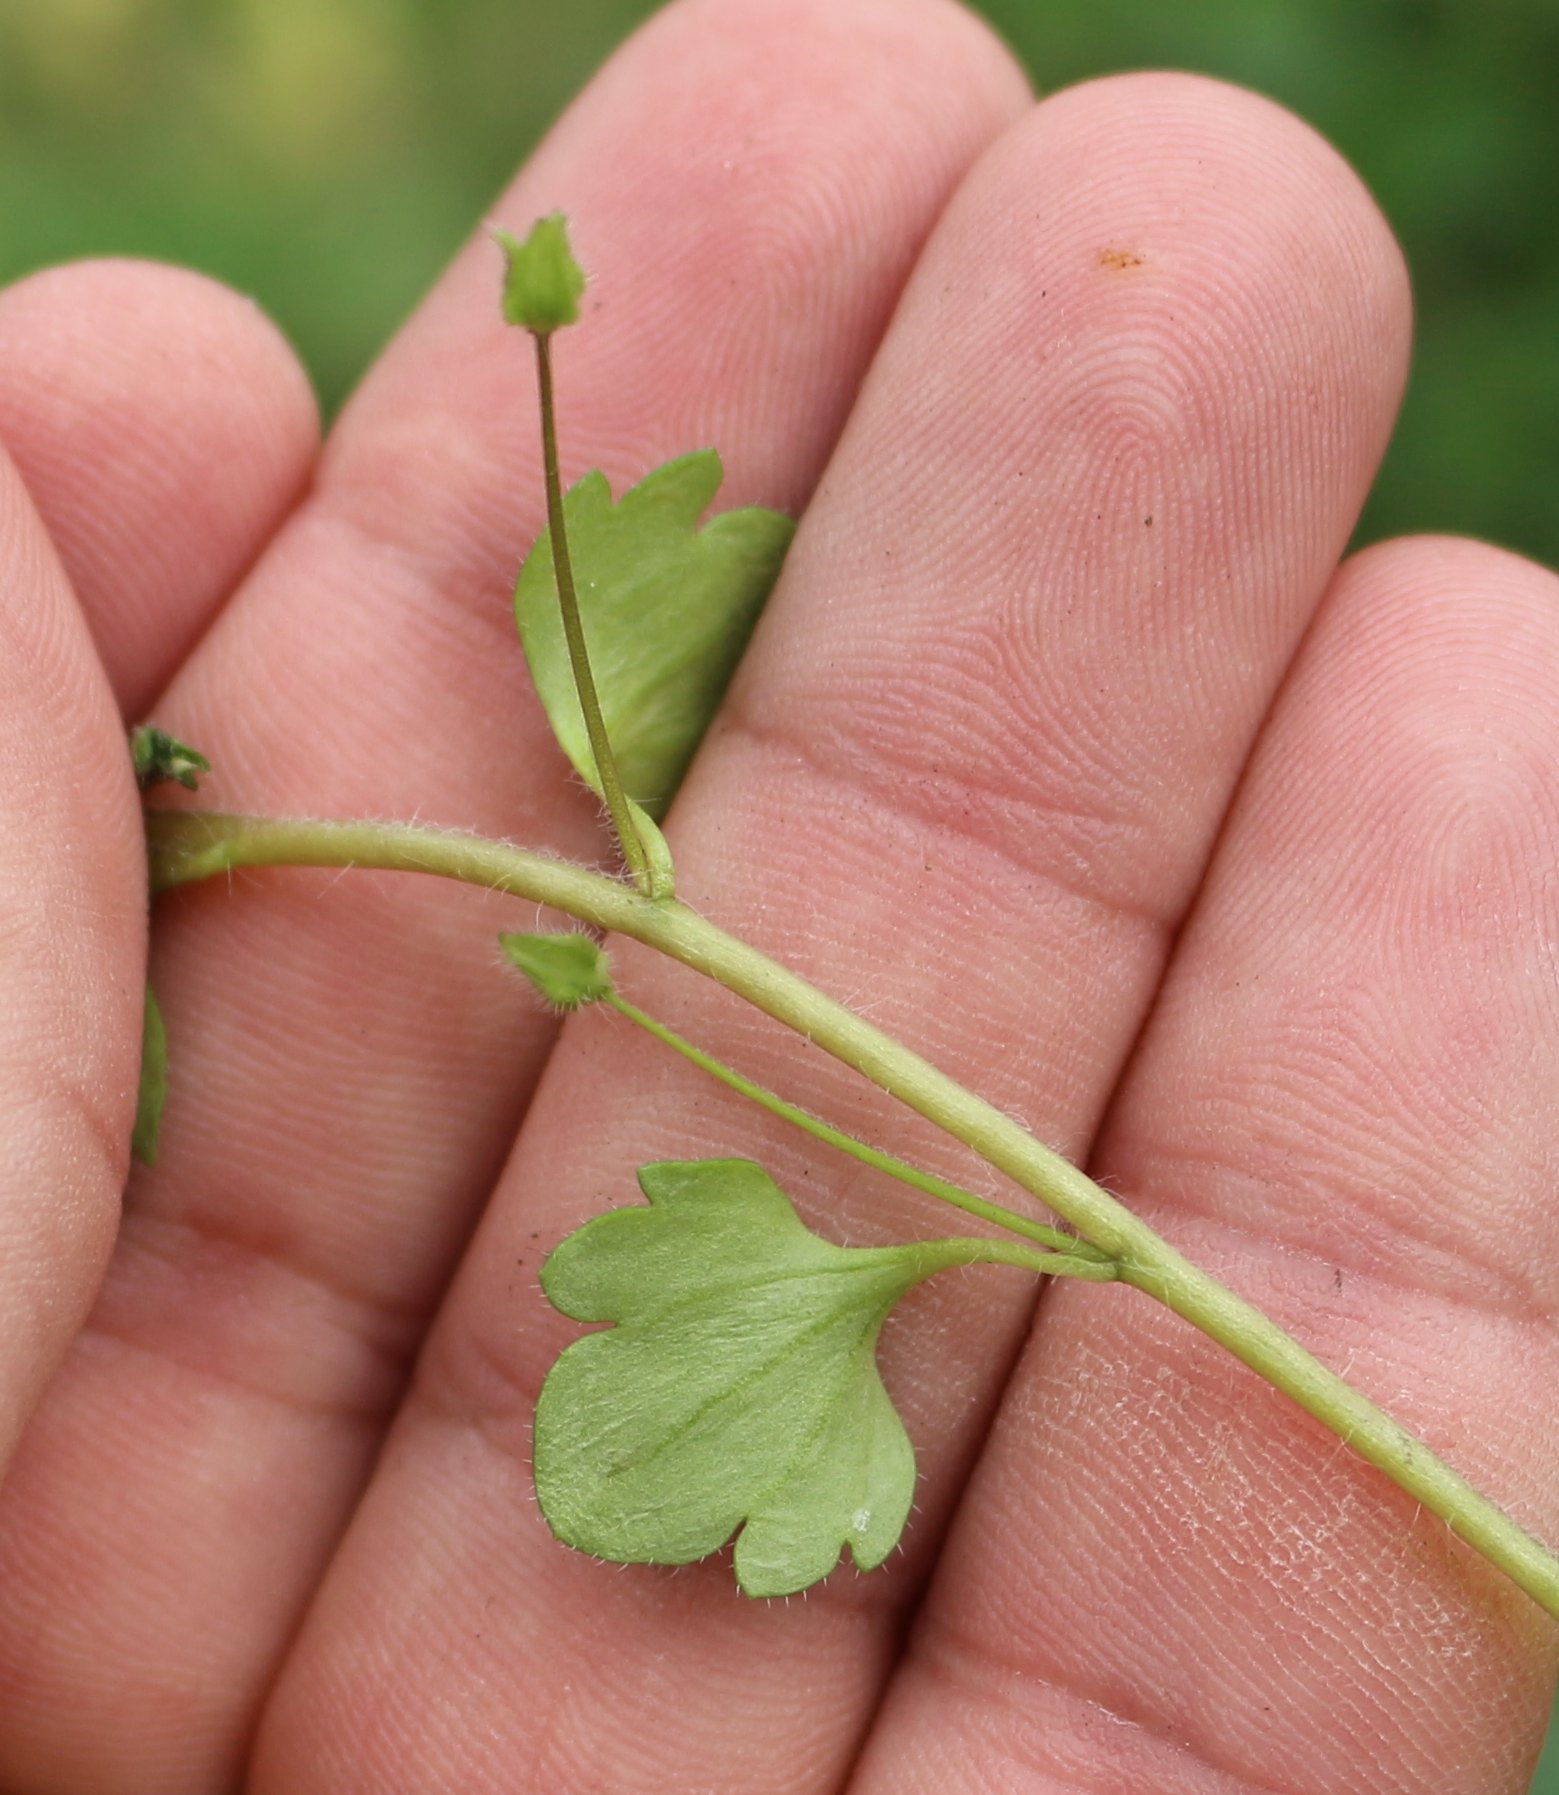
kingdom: Plantae
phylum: Tracheophyta
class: Magnoliopsida
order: Lamiales
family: Plantaginaceae
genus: Veronica
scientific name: Veronica sublobata
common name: False ivy-leaved speedwell
